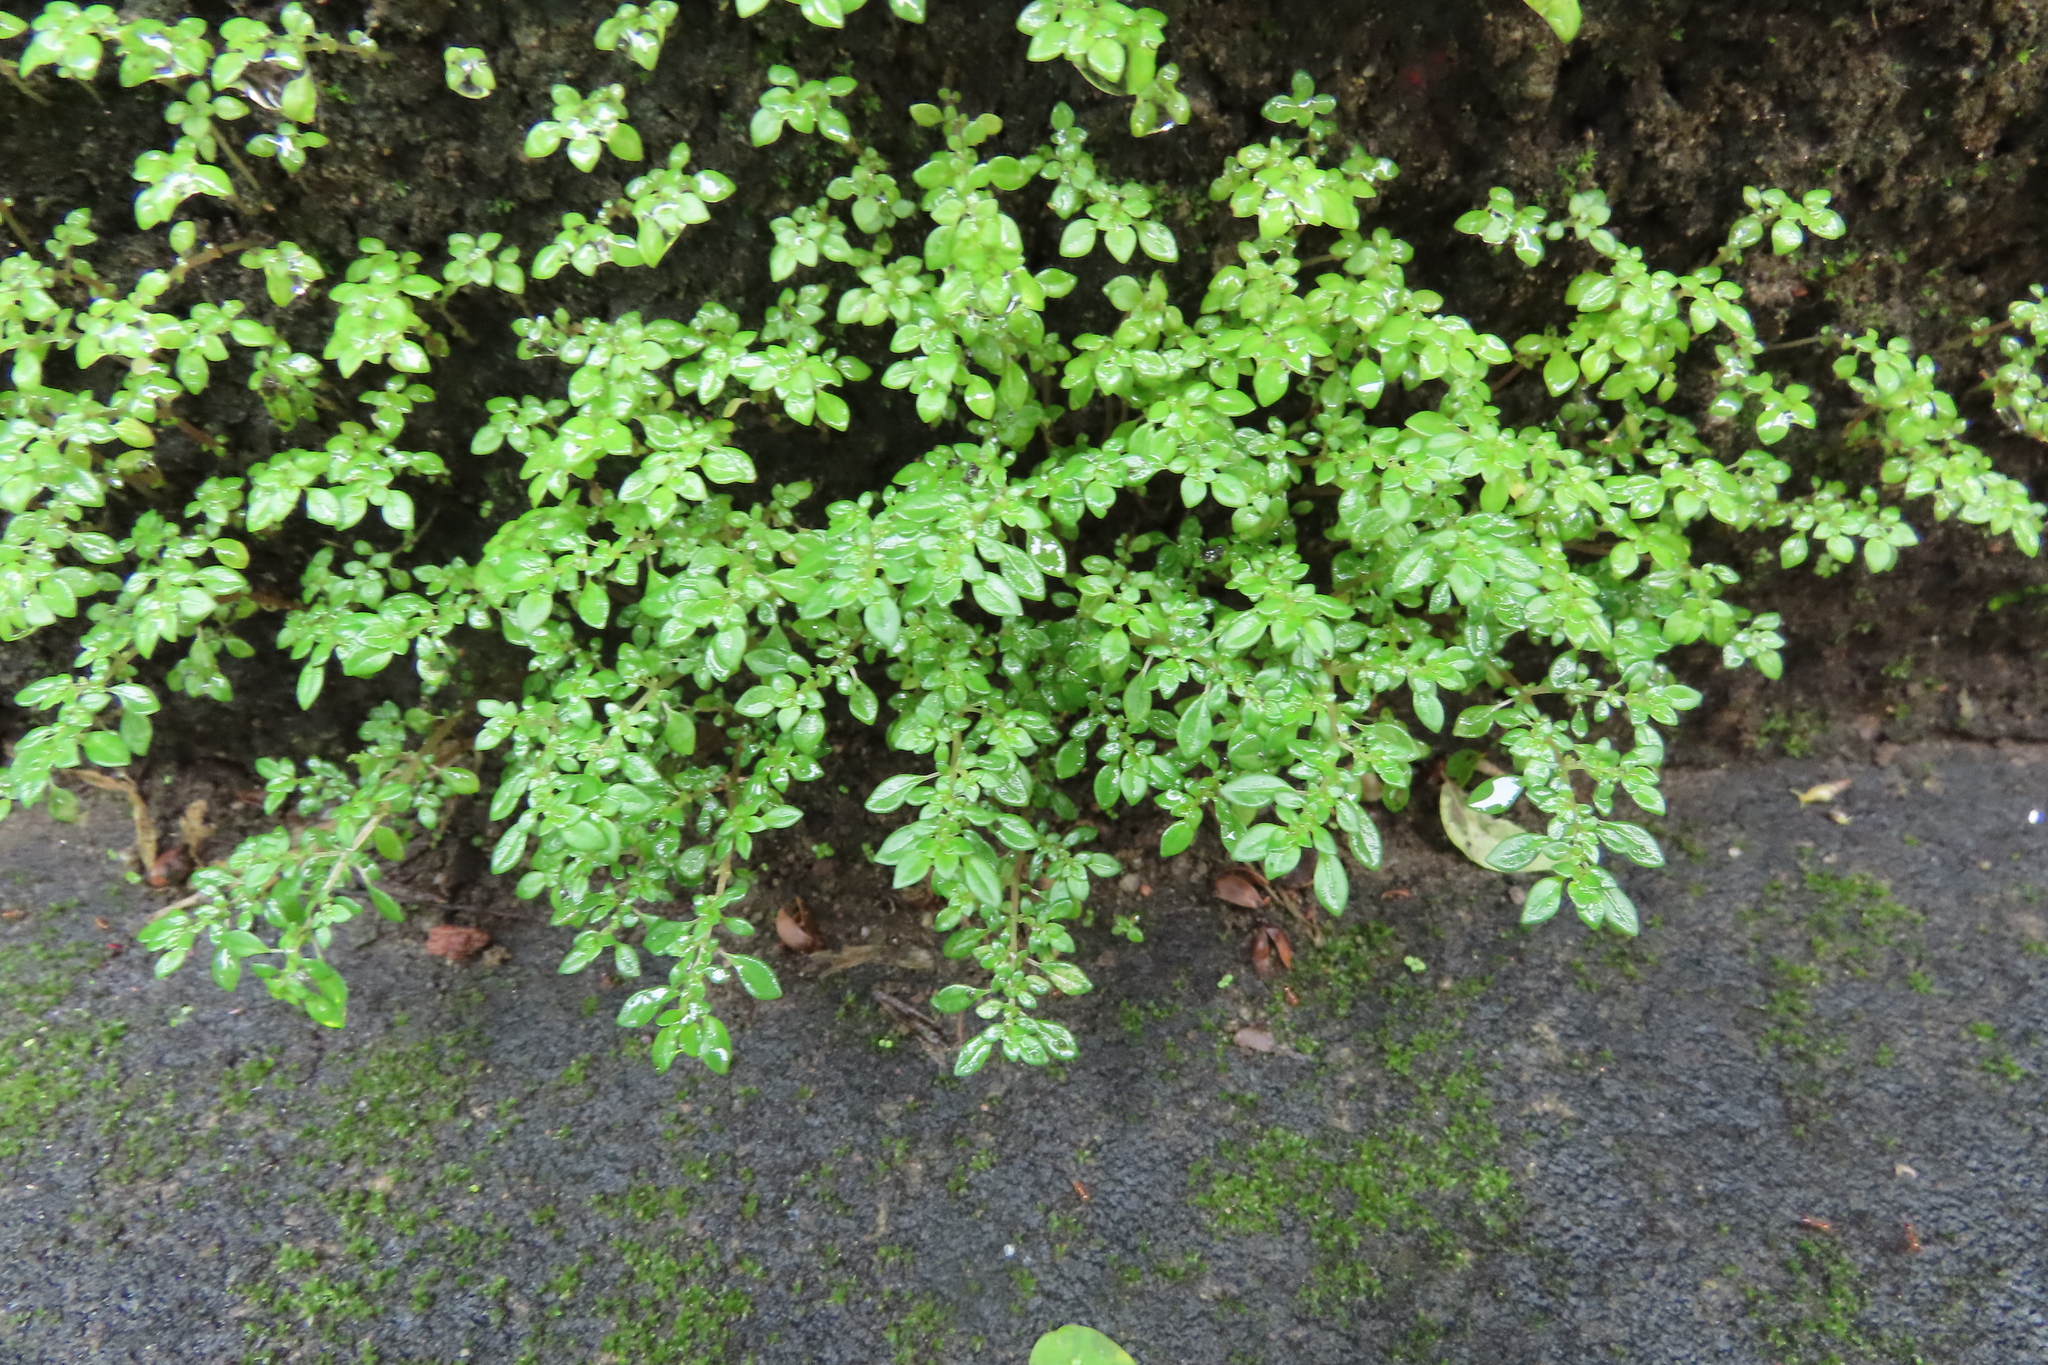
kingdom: Plantae
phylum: Tracheophyta
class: Magnoliopsida
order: Rosales
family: Urticaceae
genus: Pilea
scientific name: Pilea microphylla
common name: Artillery-plant
